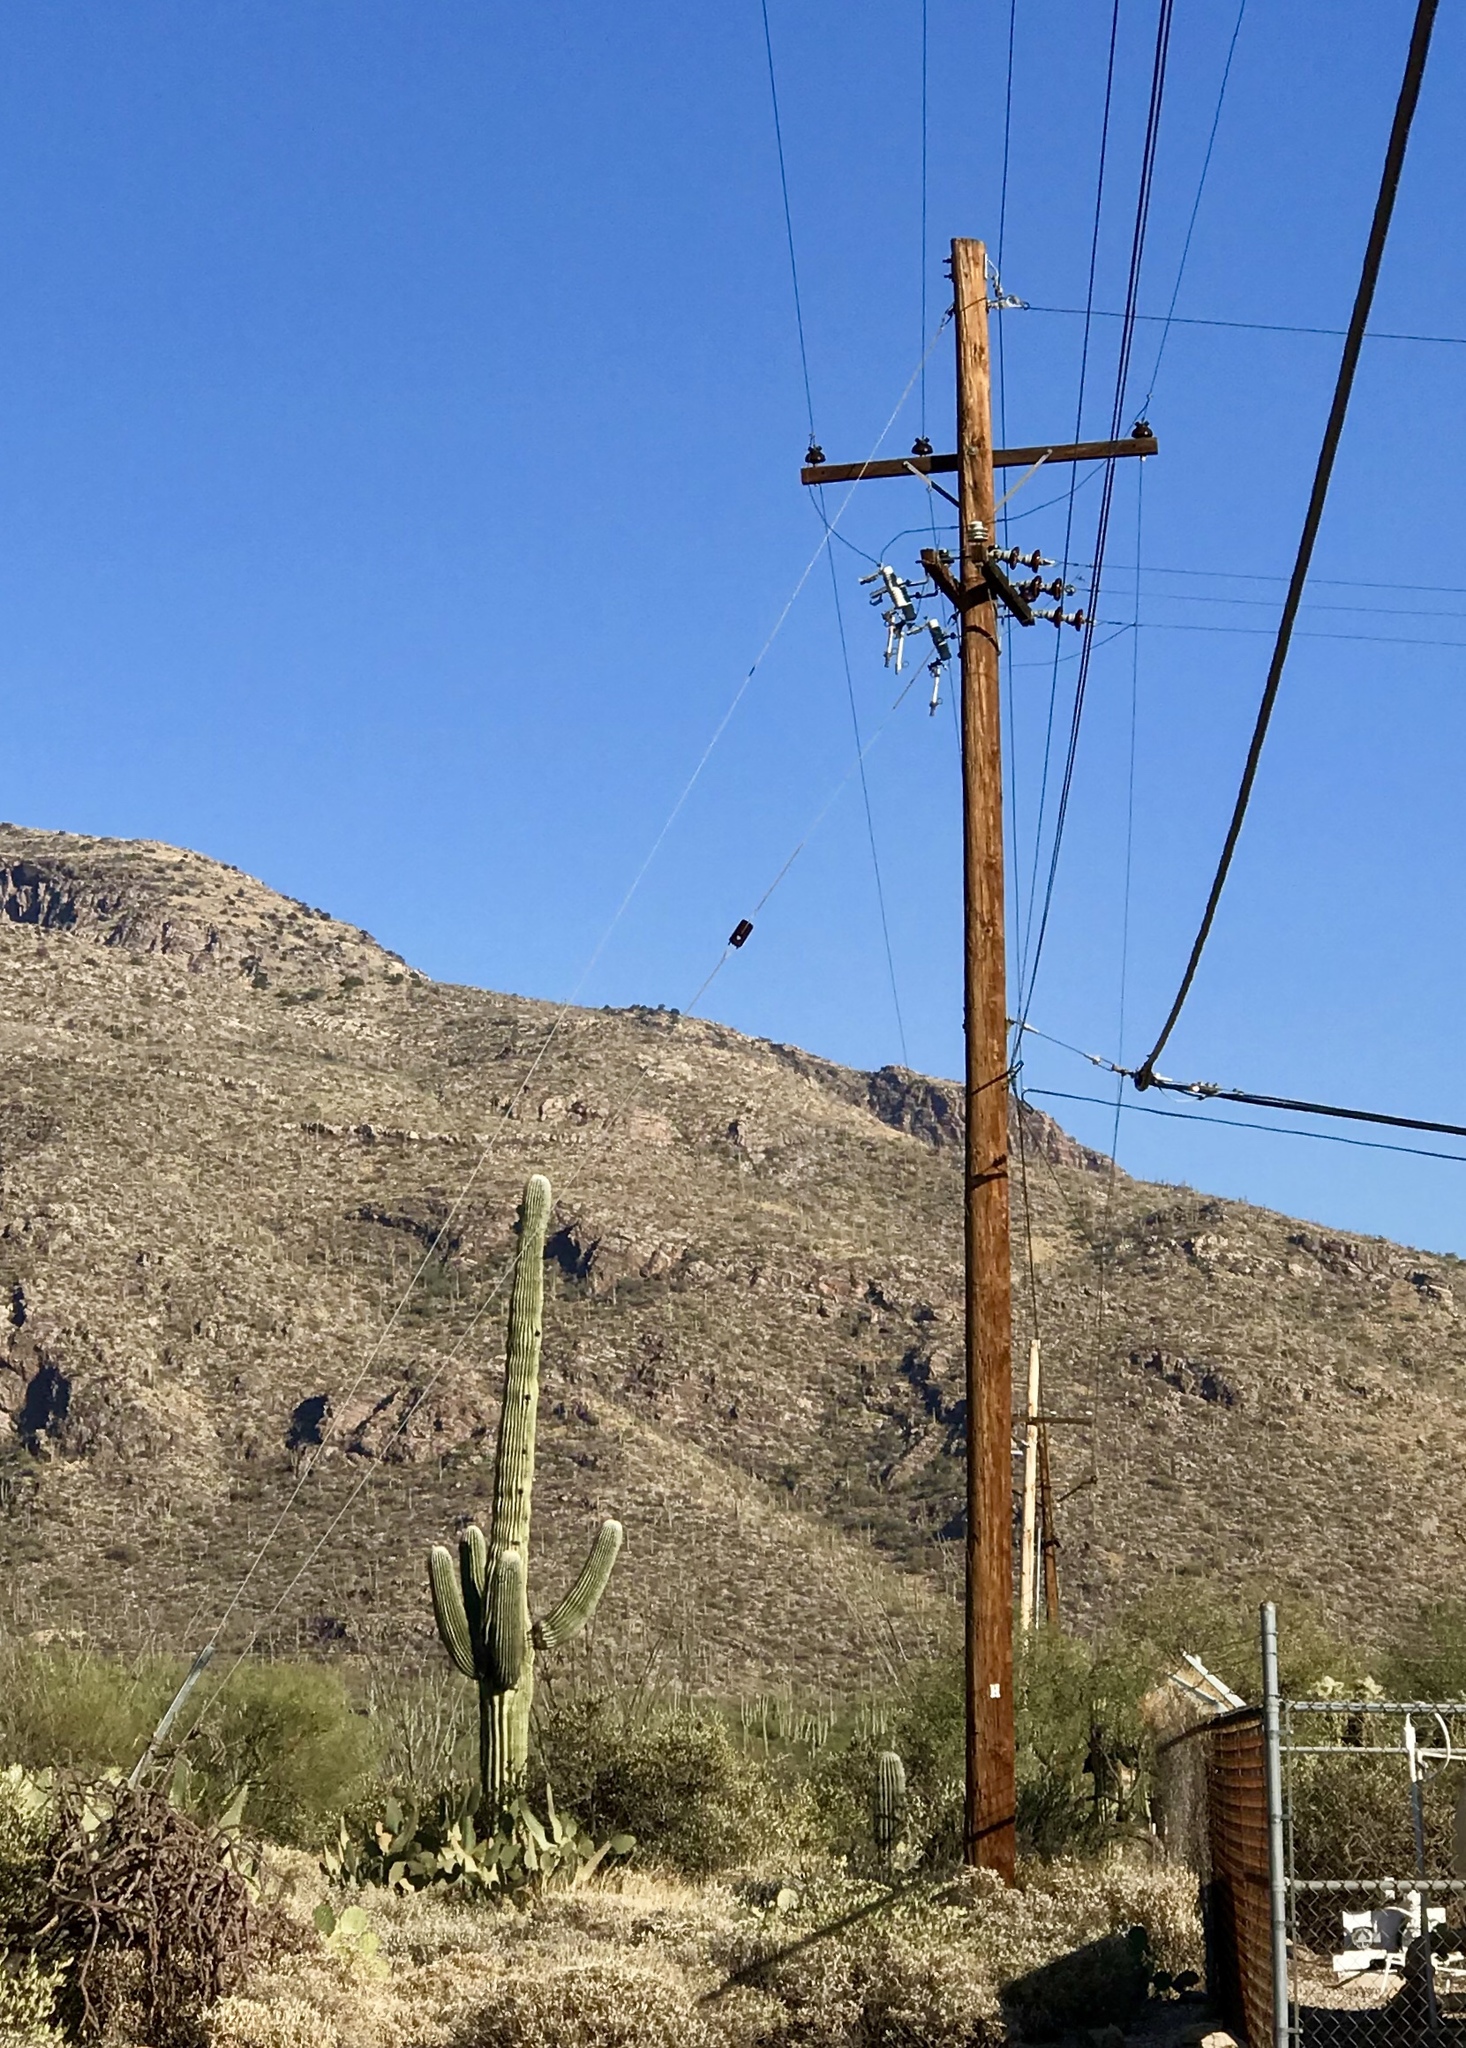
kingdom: Plantae
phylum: Tracheophyta
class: Magnoliopsida
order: Caryophyllales
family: Cactaceae
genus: Carnegiea
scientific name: Carnegiea gigantea
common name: Saguaro
